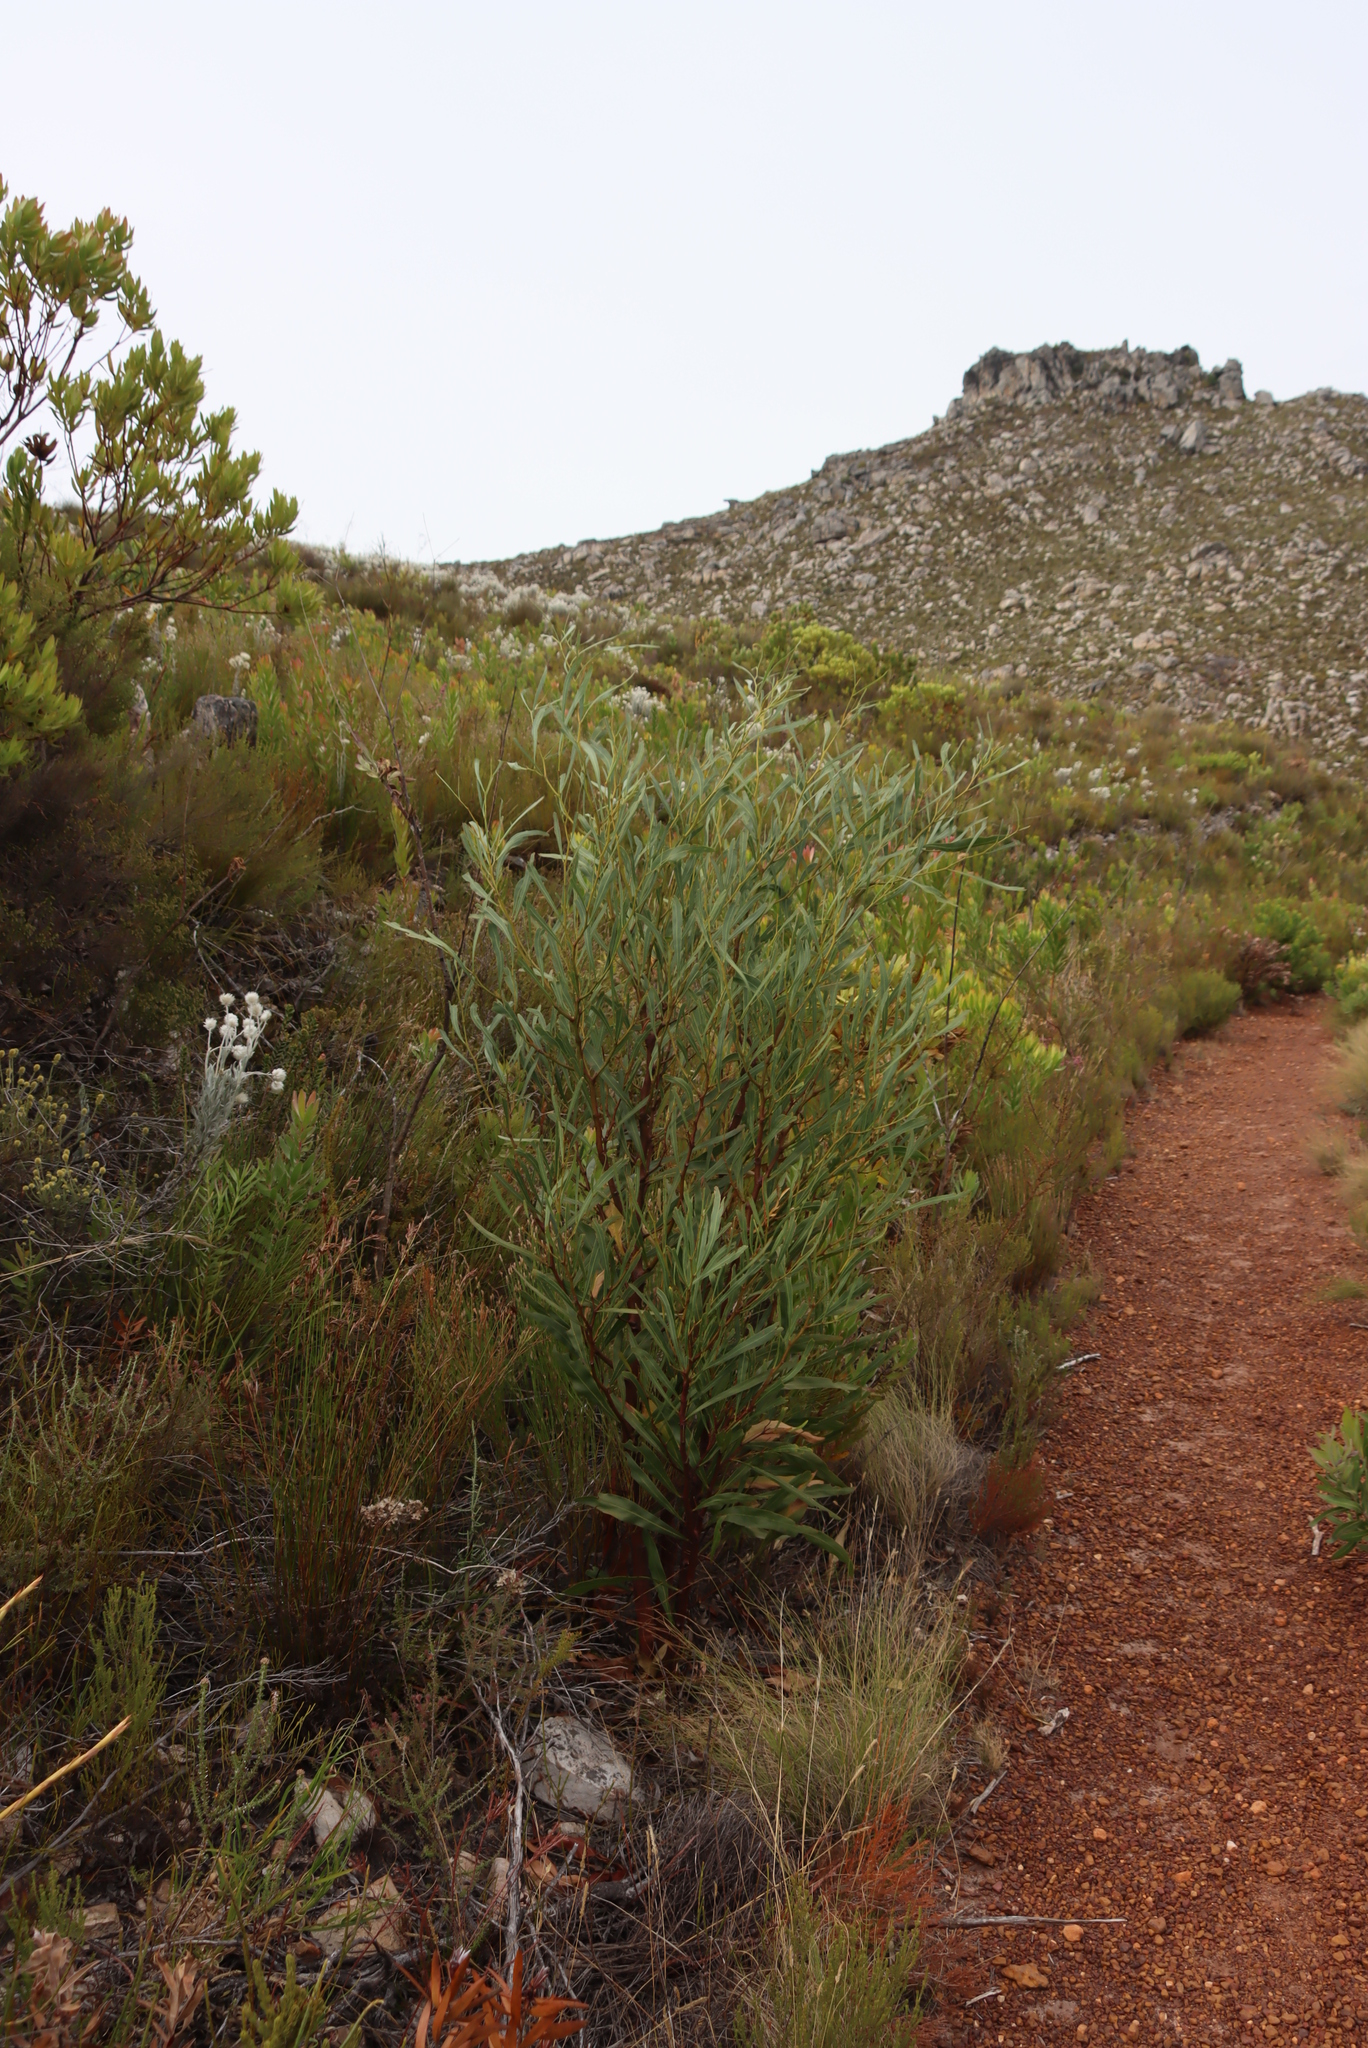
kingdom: Plantae
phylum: Tracheophyta
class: Magnoliopsida
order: Fabales
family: Fabaceae
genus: Acacia
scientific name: Acacia saligna
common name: Orange wattle
